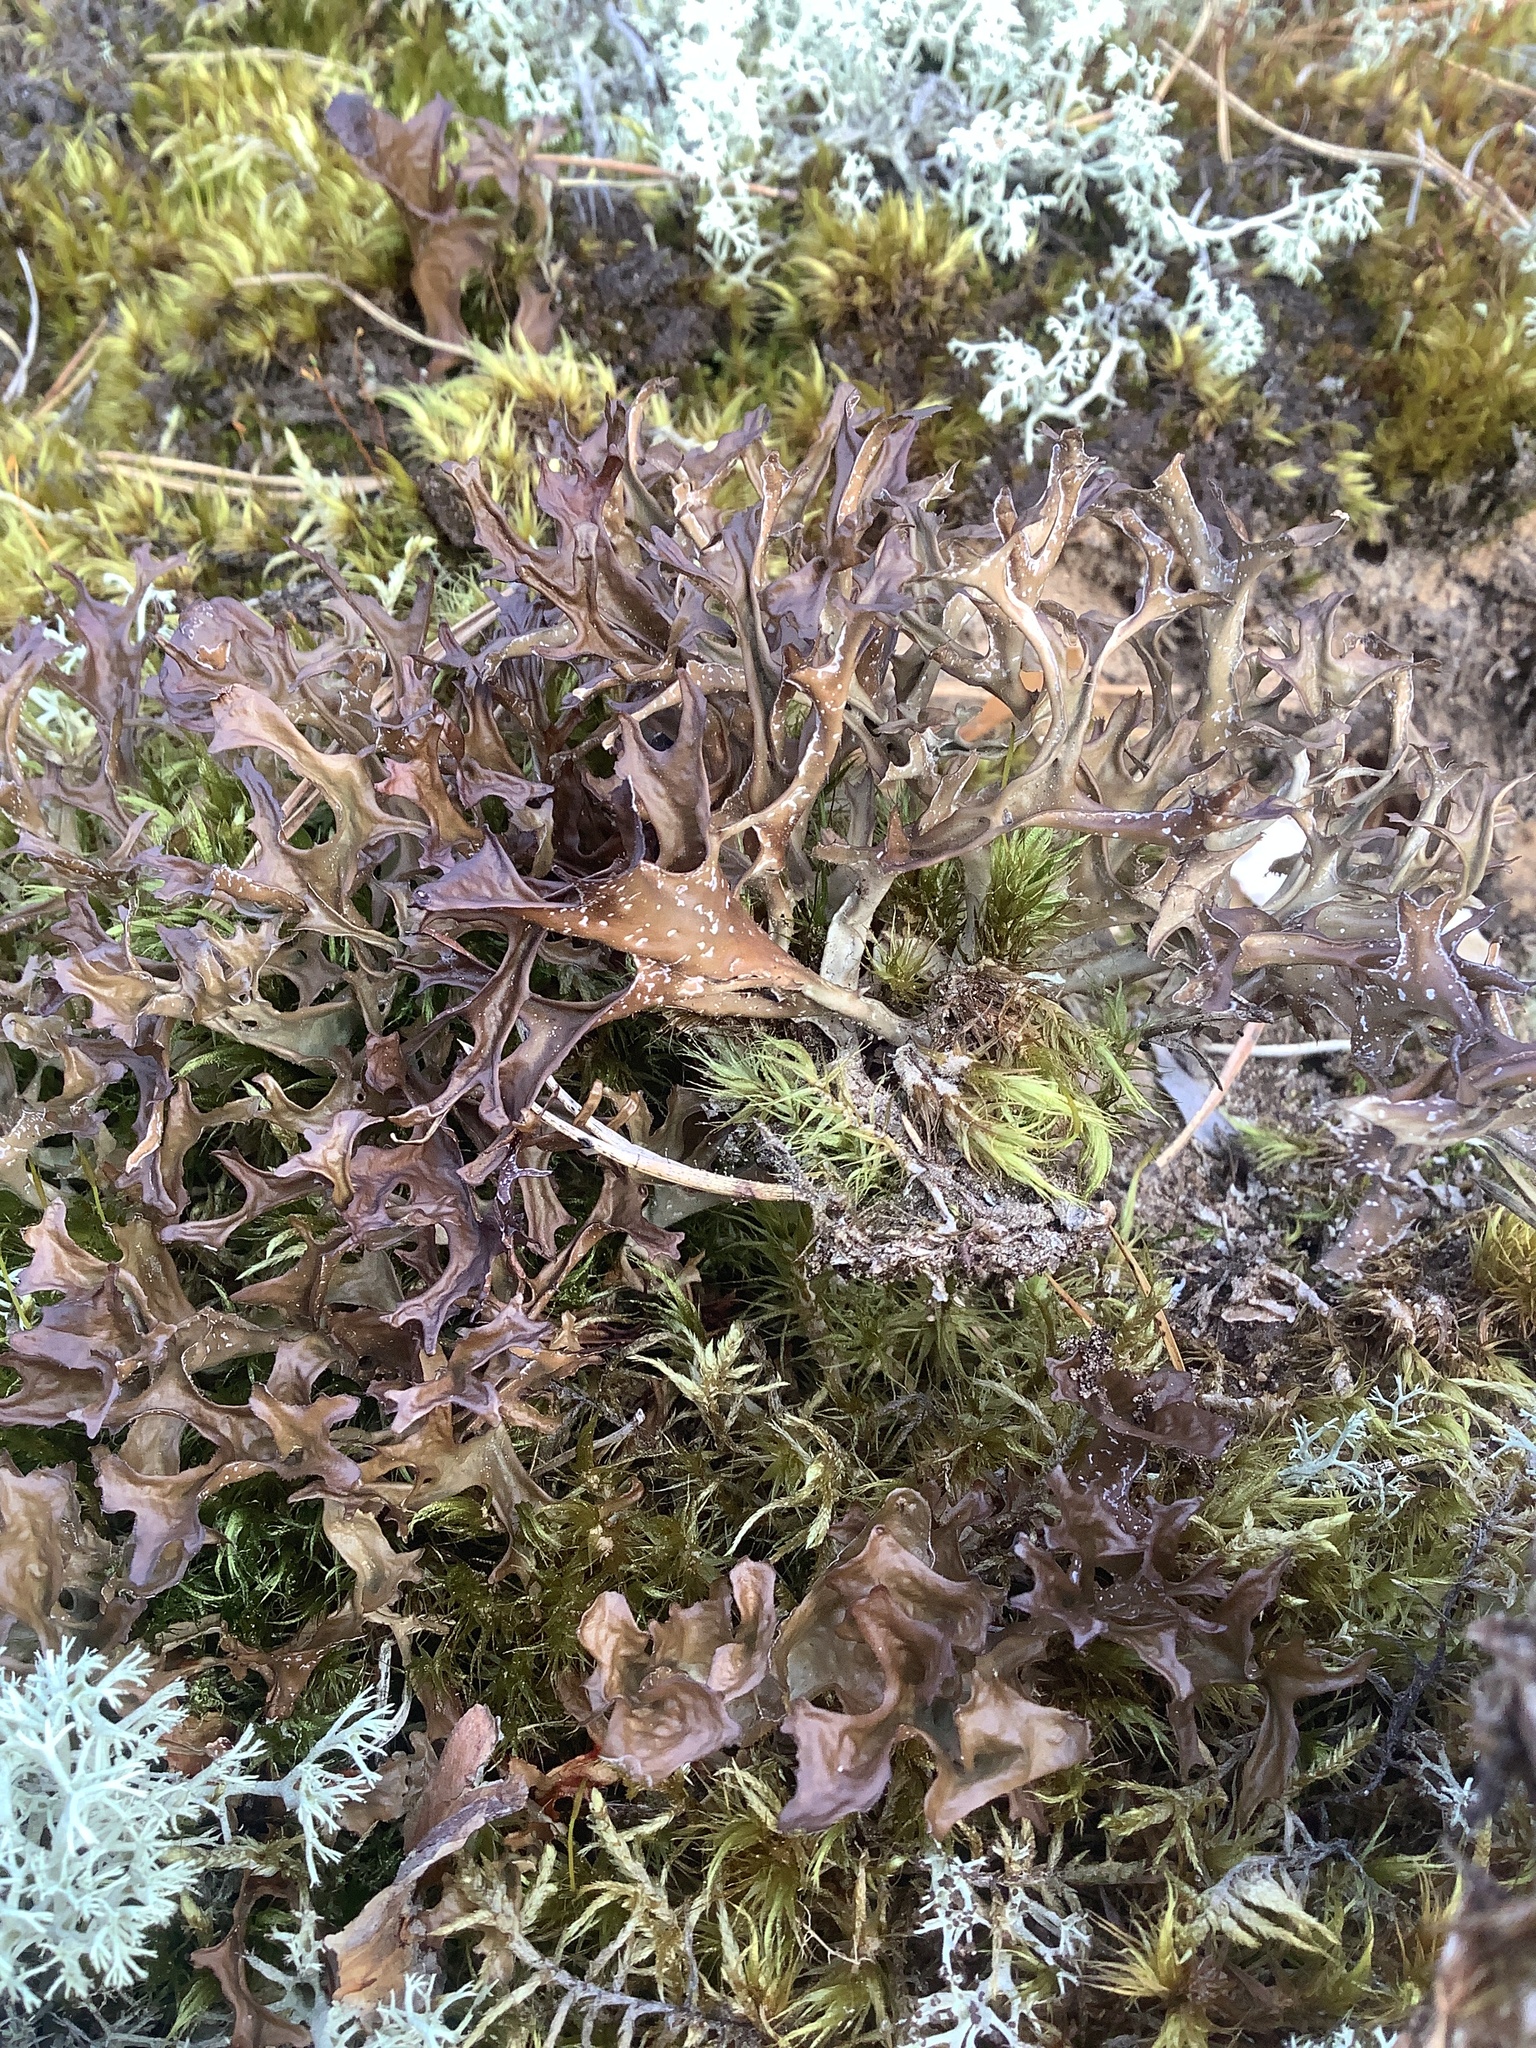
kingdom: Fungi
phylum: Ascomycota
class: Lecanoromycetes
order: Lecanorales
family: Parmeliaceae
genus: Cetraria
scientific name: Cetraria islandica
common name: Iceland lichen
